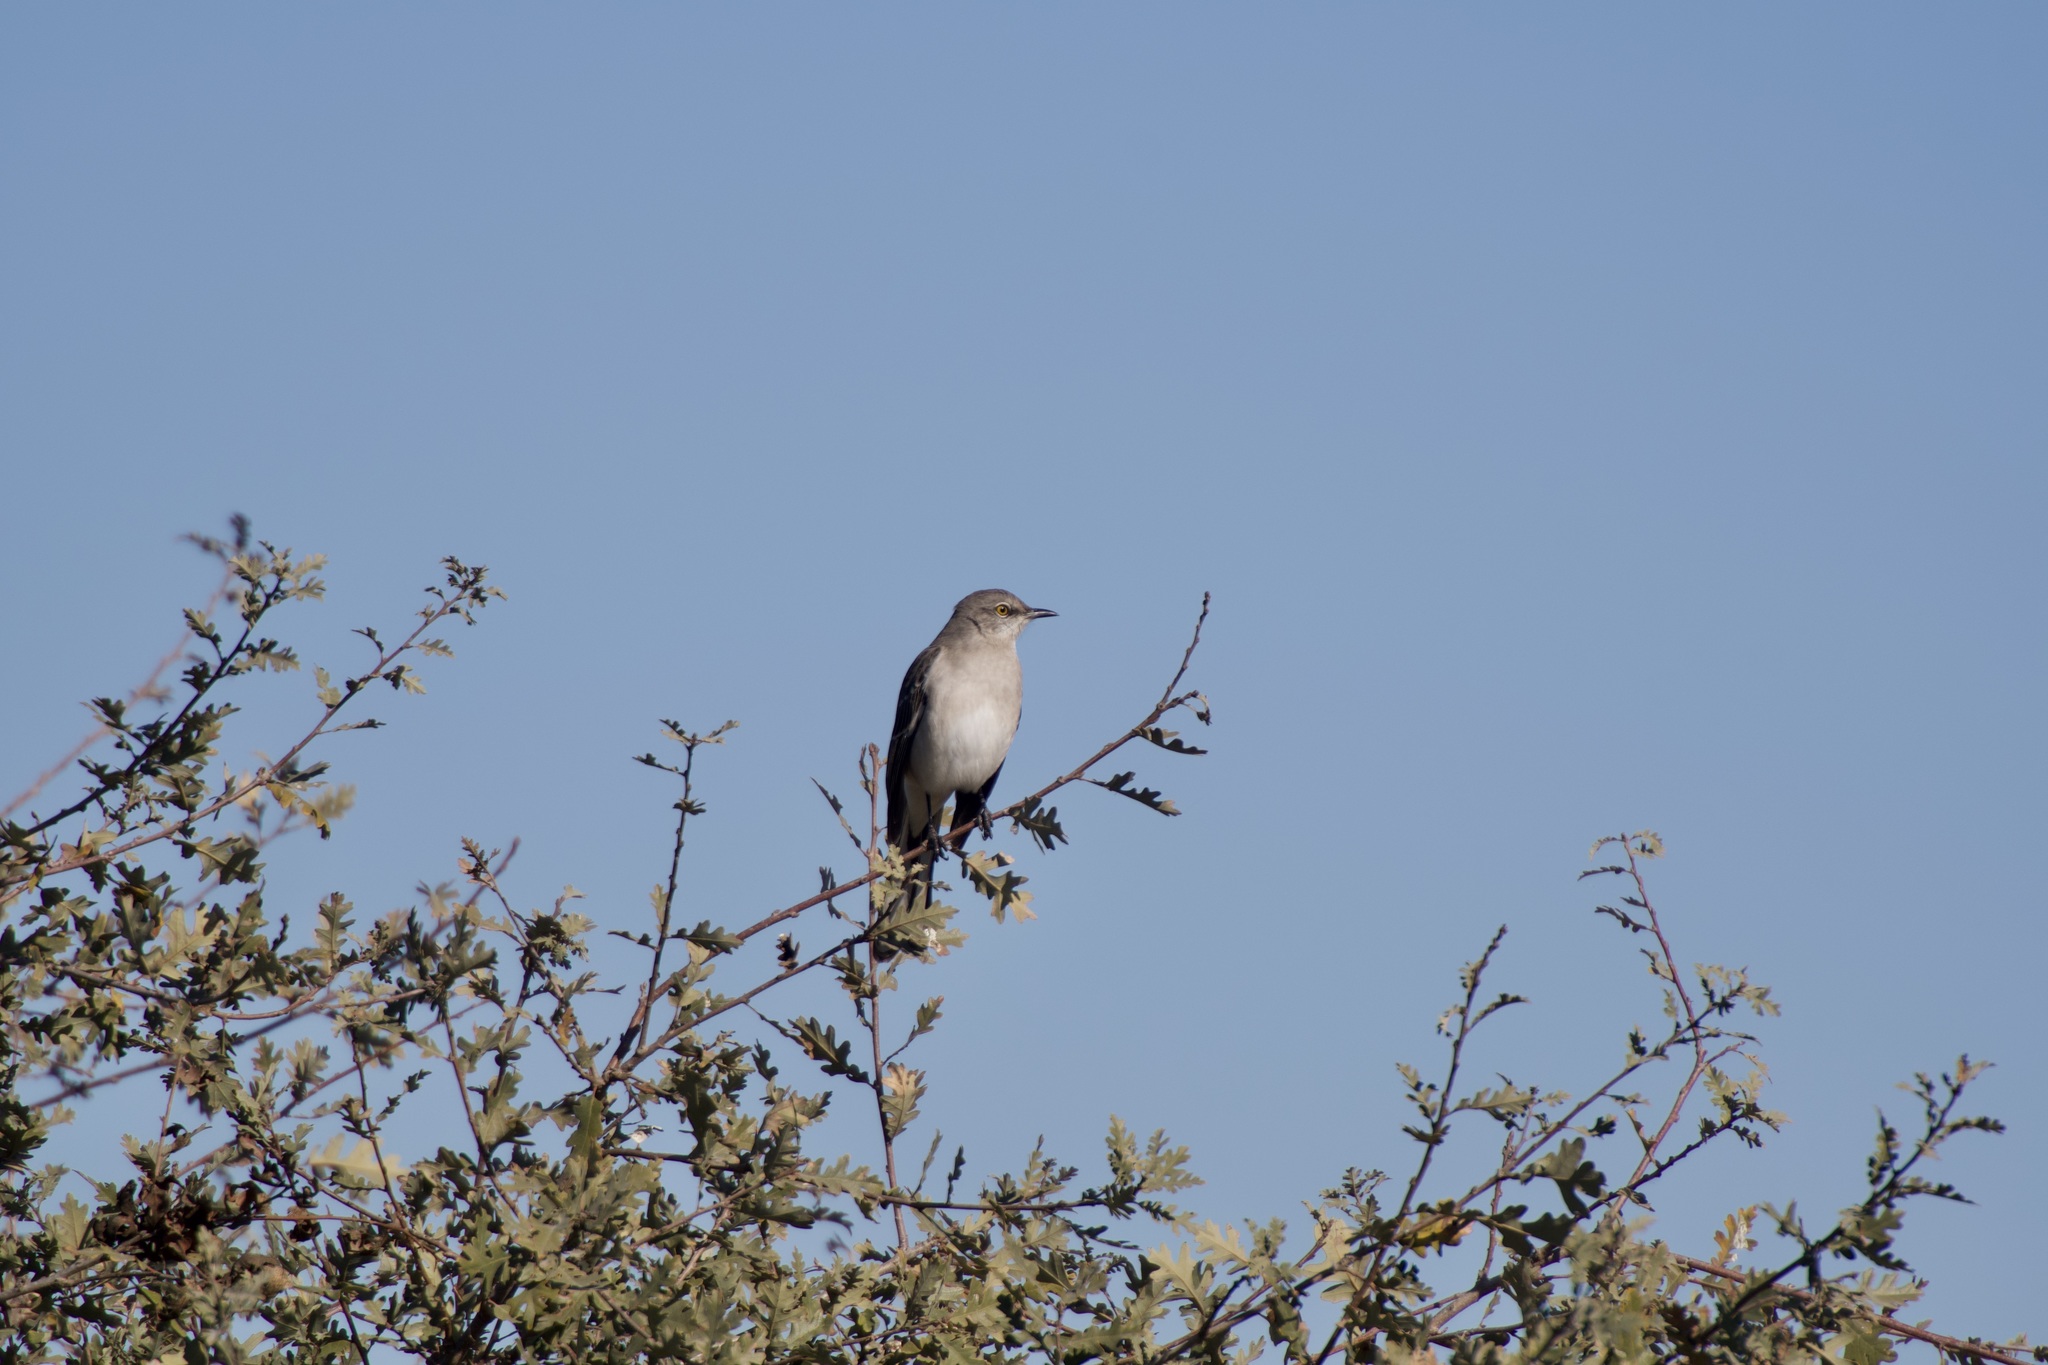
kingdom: Animalia
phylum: Chordata
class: Aves
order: Passeriformes
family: Mimidae
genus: Mimus
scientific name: Mimus polyglottos
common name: Northern mockingbird
